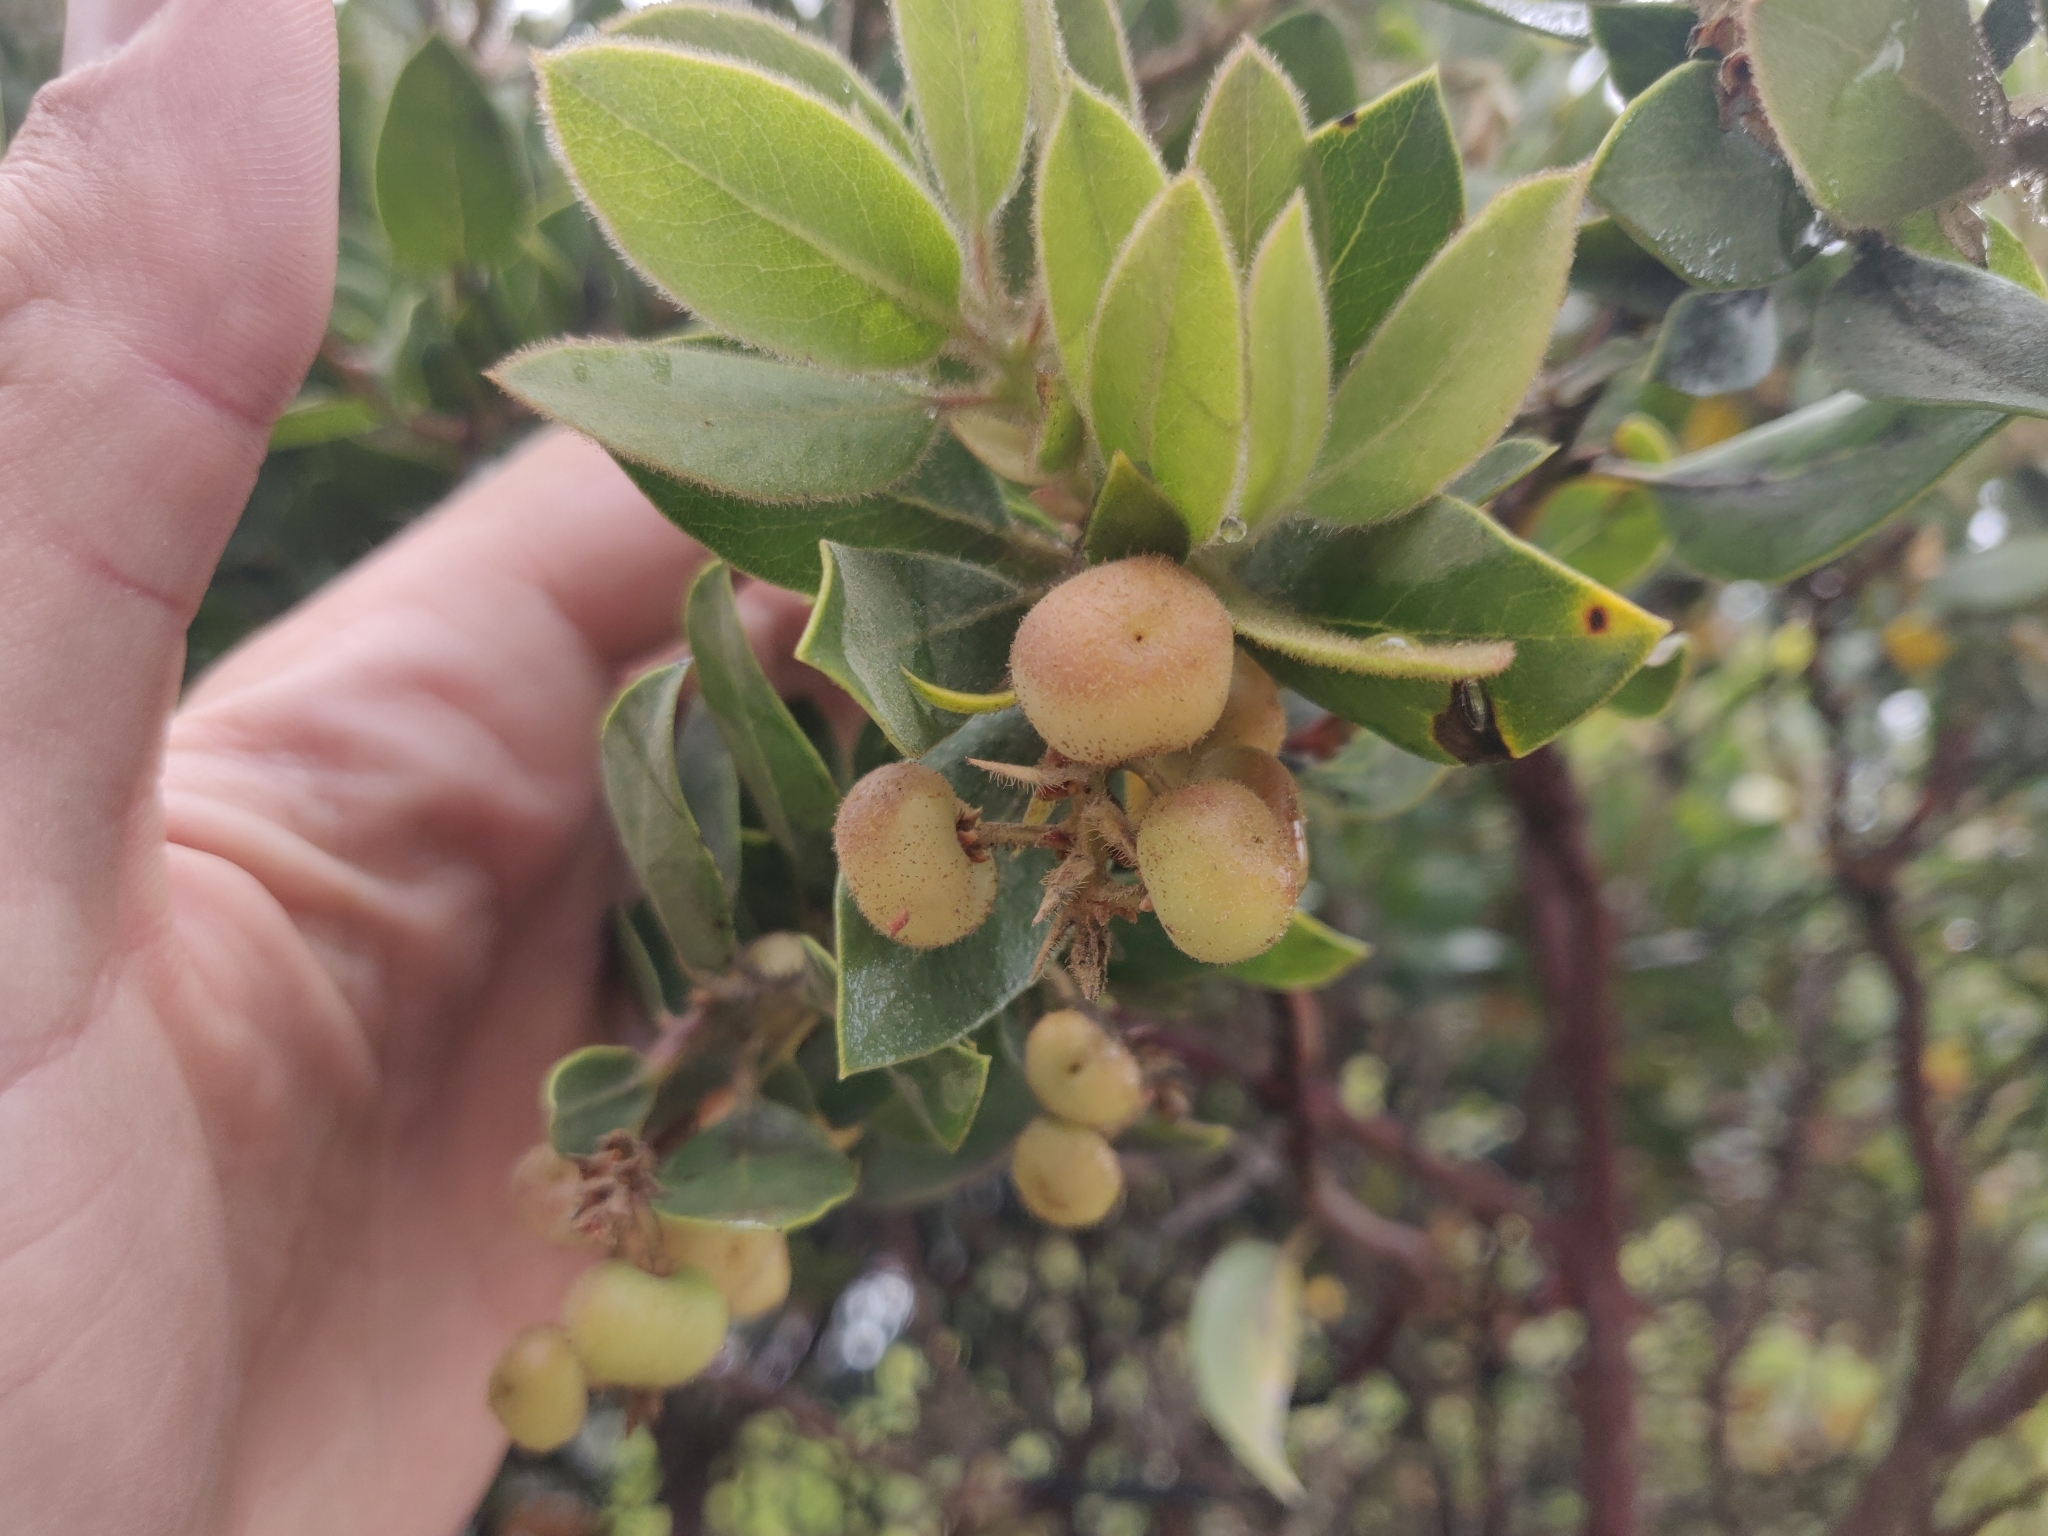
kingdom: Plantae
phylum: Tracheophyta
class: Magnoliopsida
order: Ericales
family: Ericaceae
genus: Arctostaphylos
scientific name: Arctostaphylos virgata
